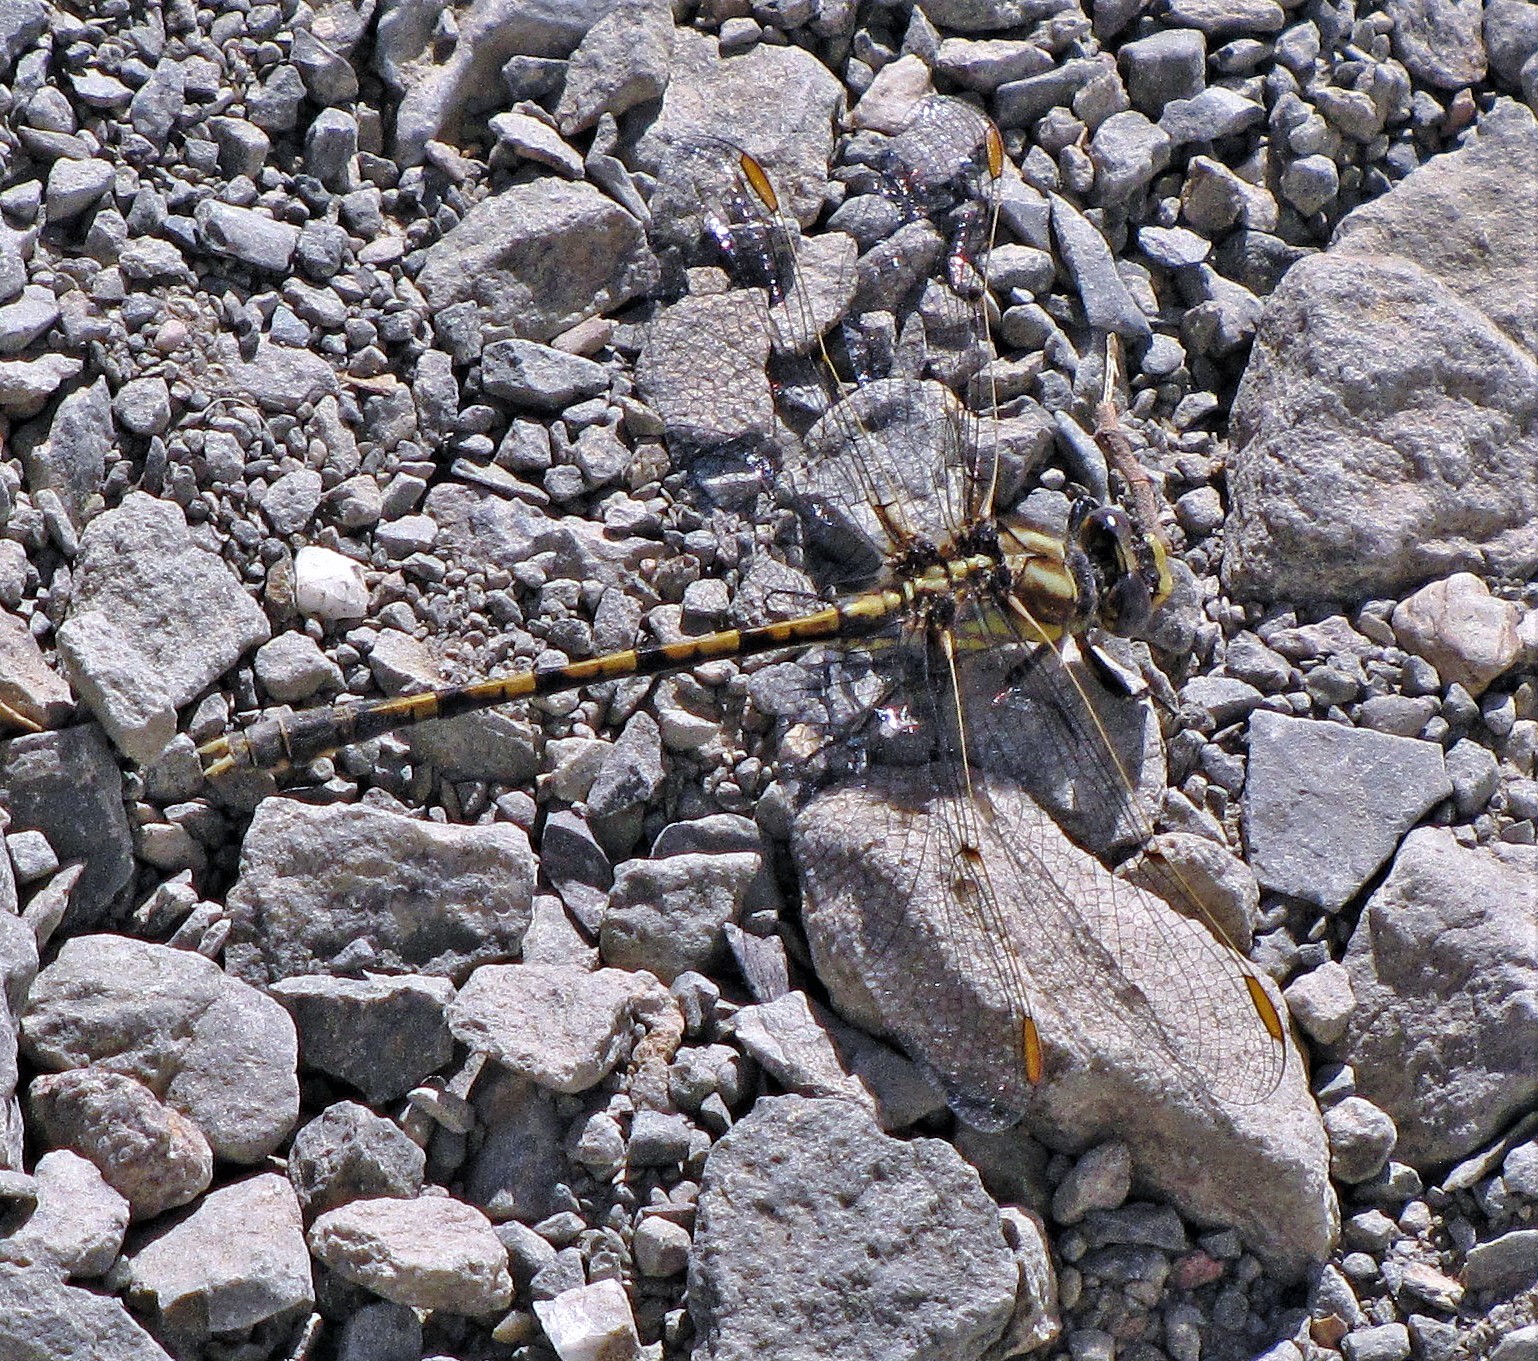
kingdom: Animalia
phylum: Arthropoda
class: Insecta
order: Odonata
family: Gomphidae
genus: Progomphus
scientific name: Progomphus joergenseni
